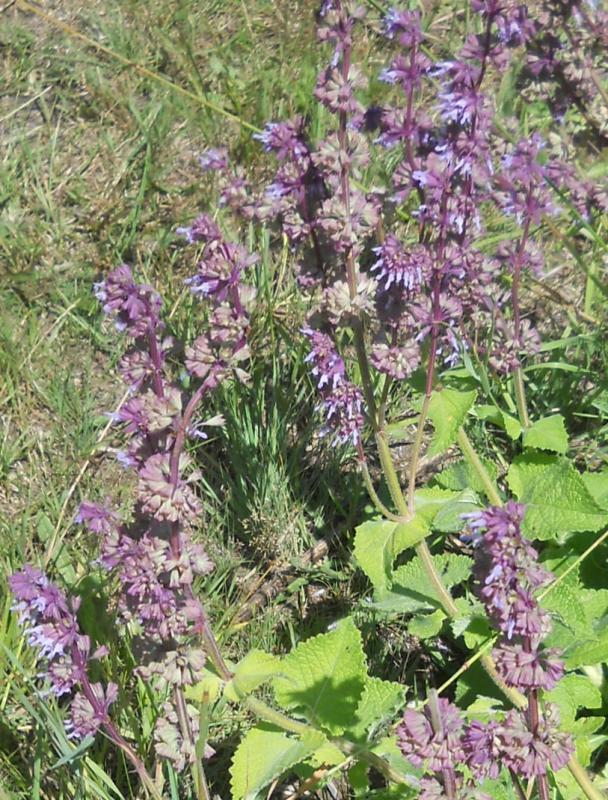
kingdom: Plantae
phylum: Tracheophyta
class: Magnoliopsida
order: Lamiales
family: Lamiaceae
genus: Salvia
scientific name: Salvia verticillata
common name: Whorled clary
